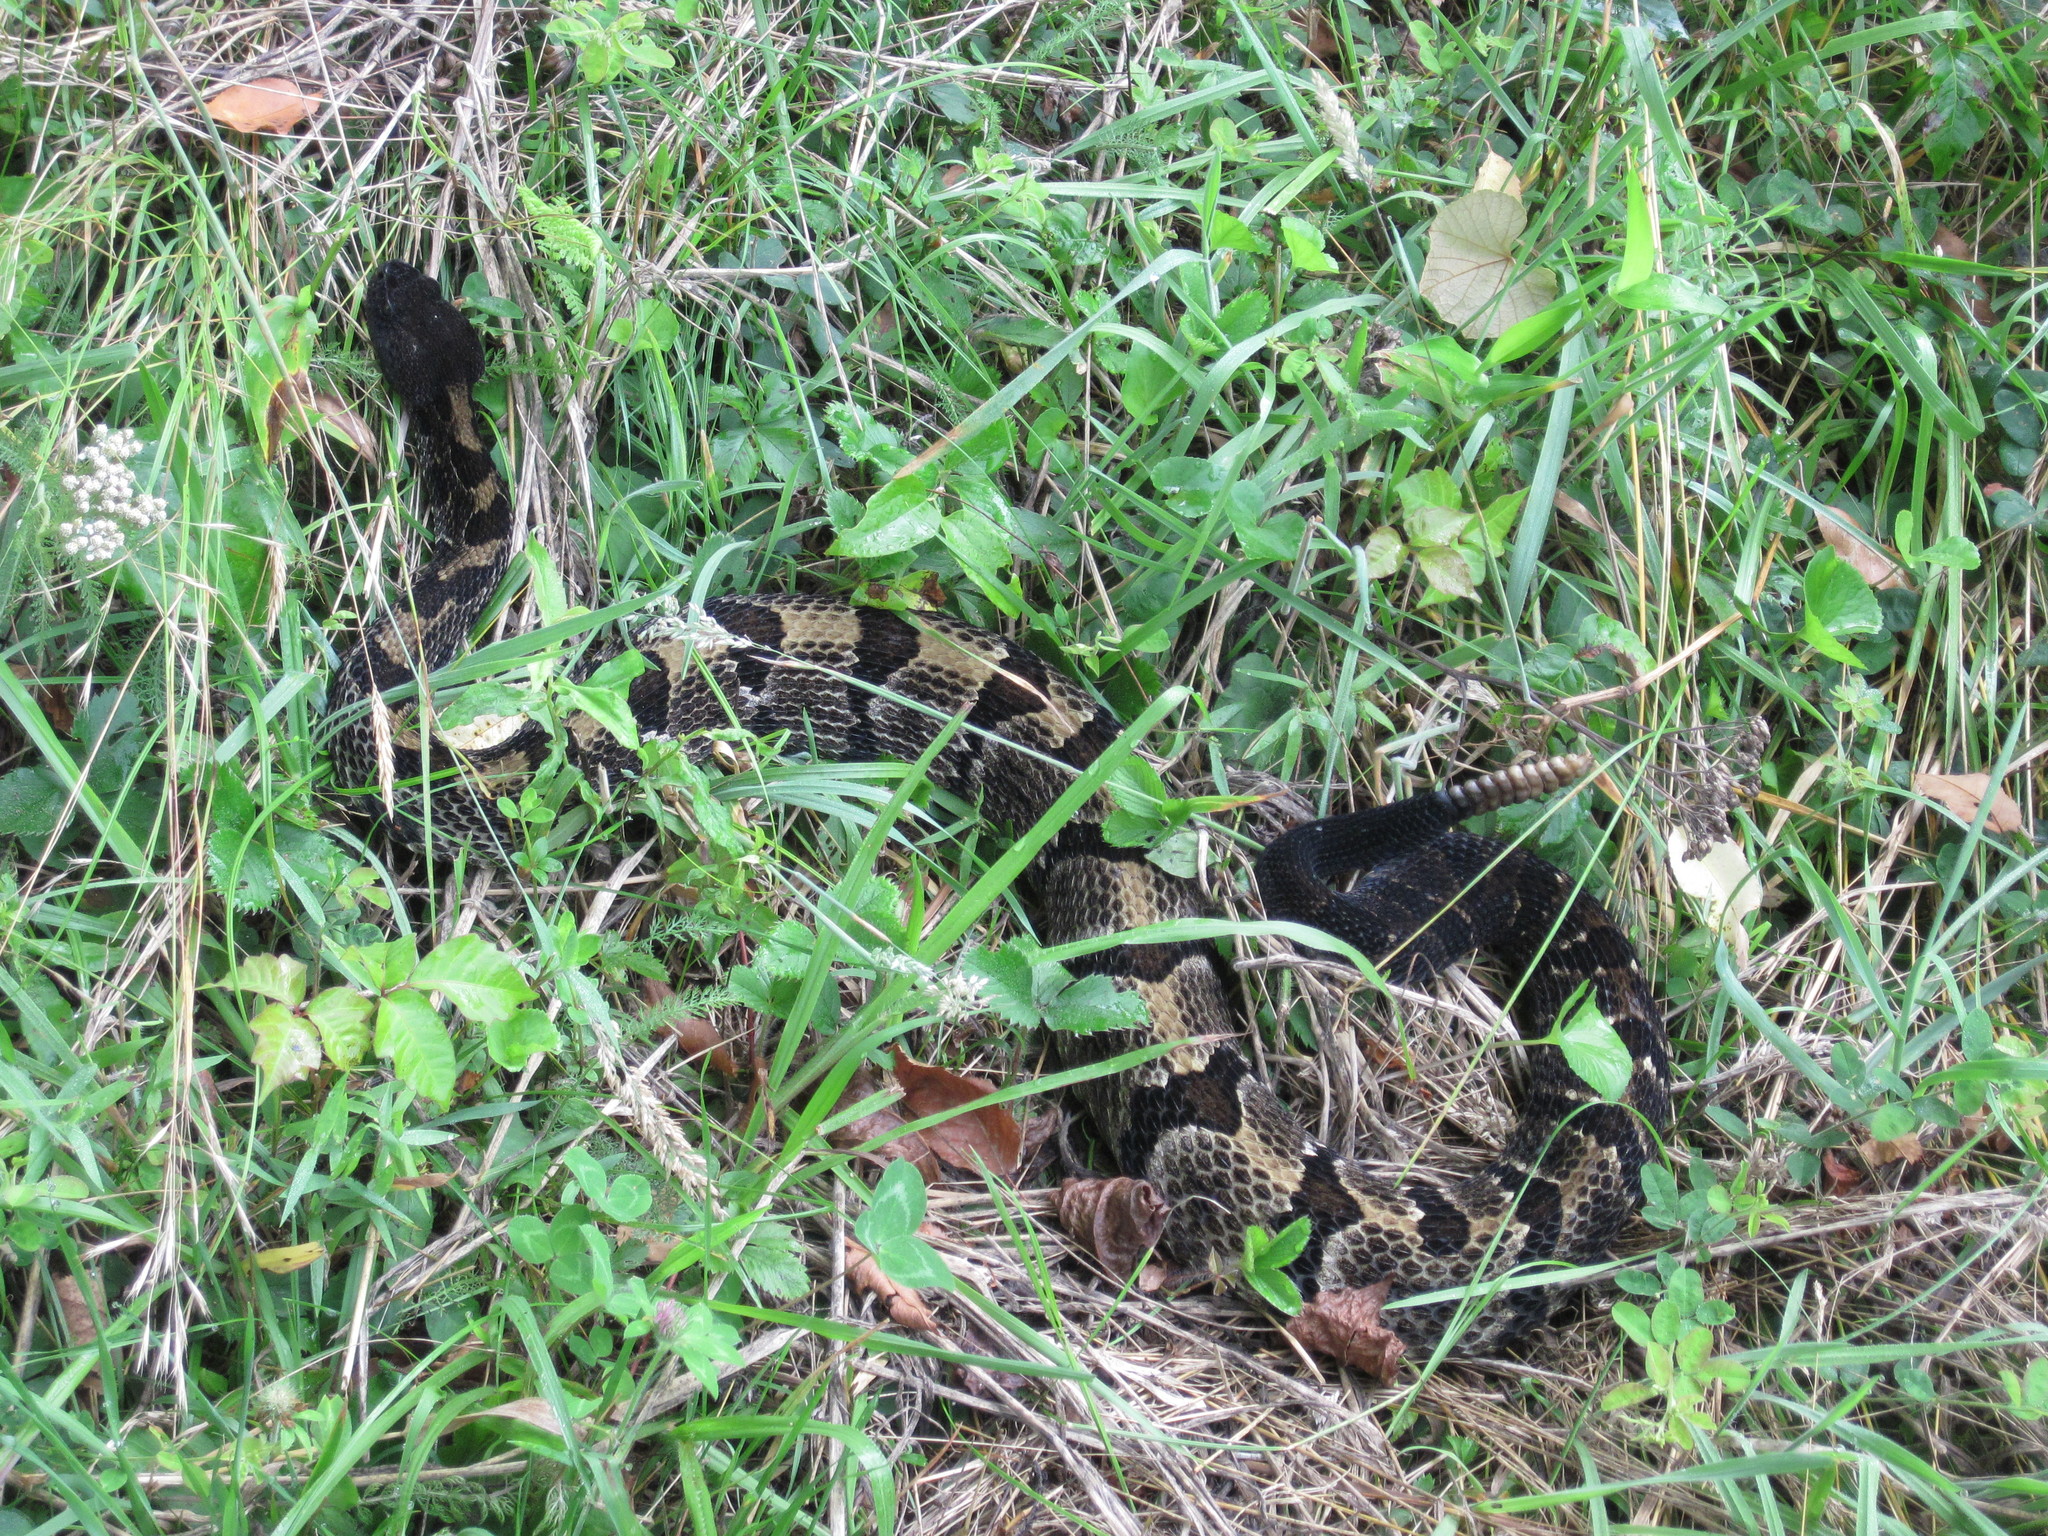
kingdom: Animalia
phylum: Chordata
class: Squamata
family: Viperidae
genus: Crotalus
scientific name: Crotalus horridus
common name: Timber rattlesnake
